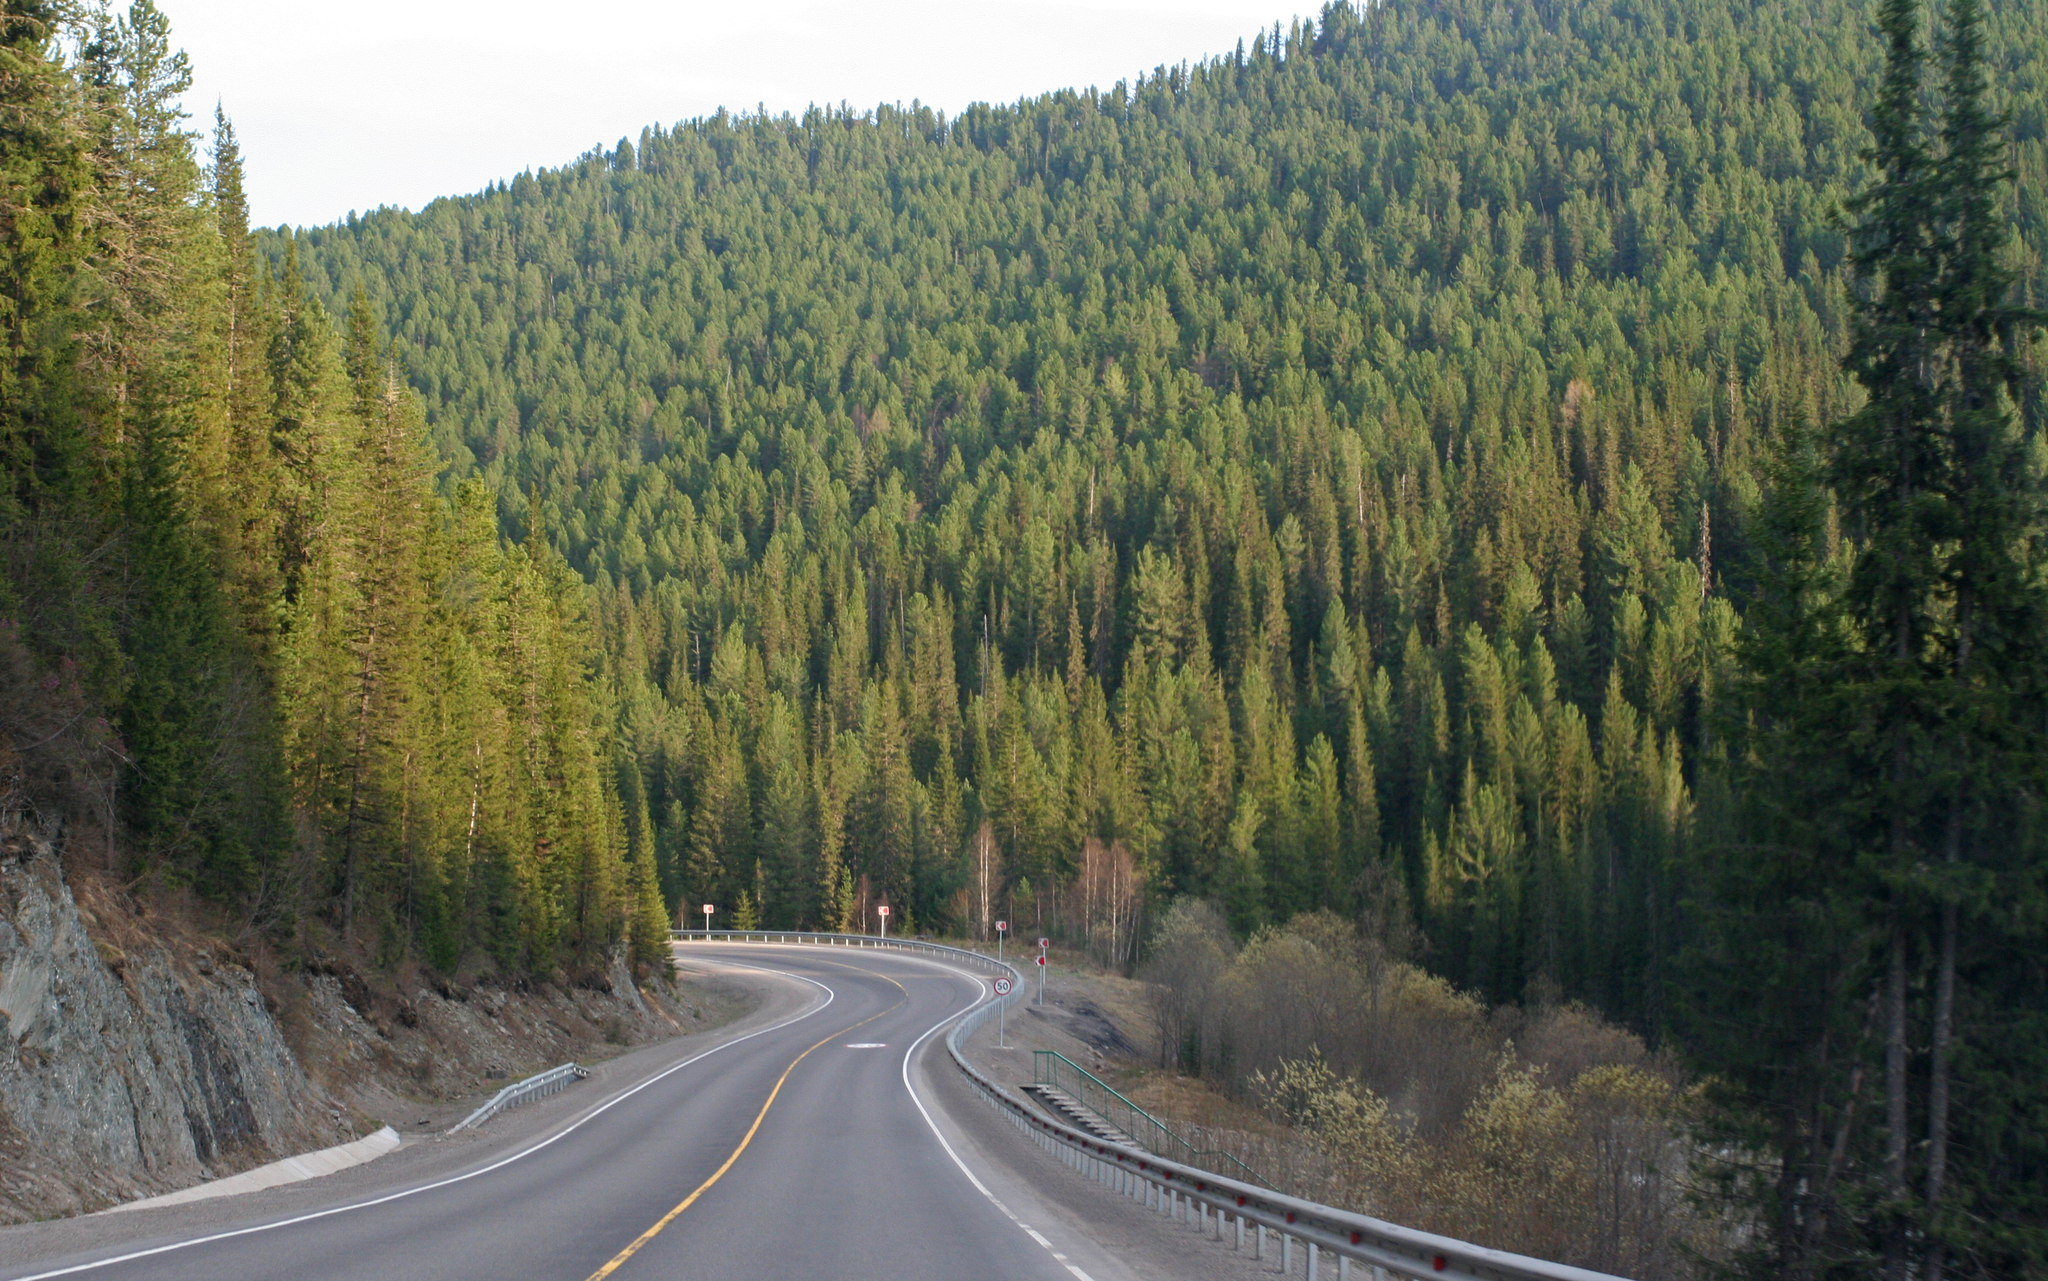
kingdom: Plantae
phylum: Tracheophyta
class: Pinopsida
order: Pinales
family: Pinaceae
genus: Abies
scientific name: Abies sibirica
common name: Siberian fir
